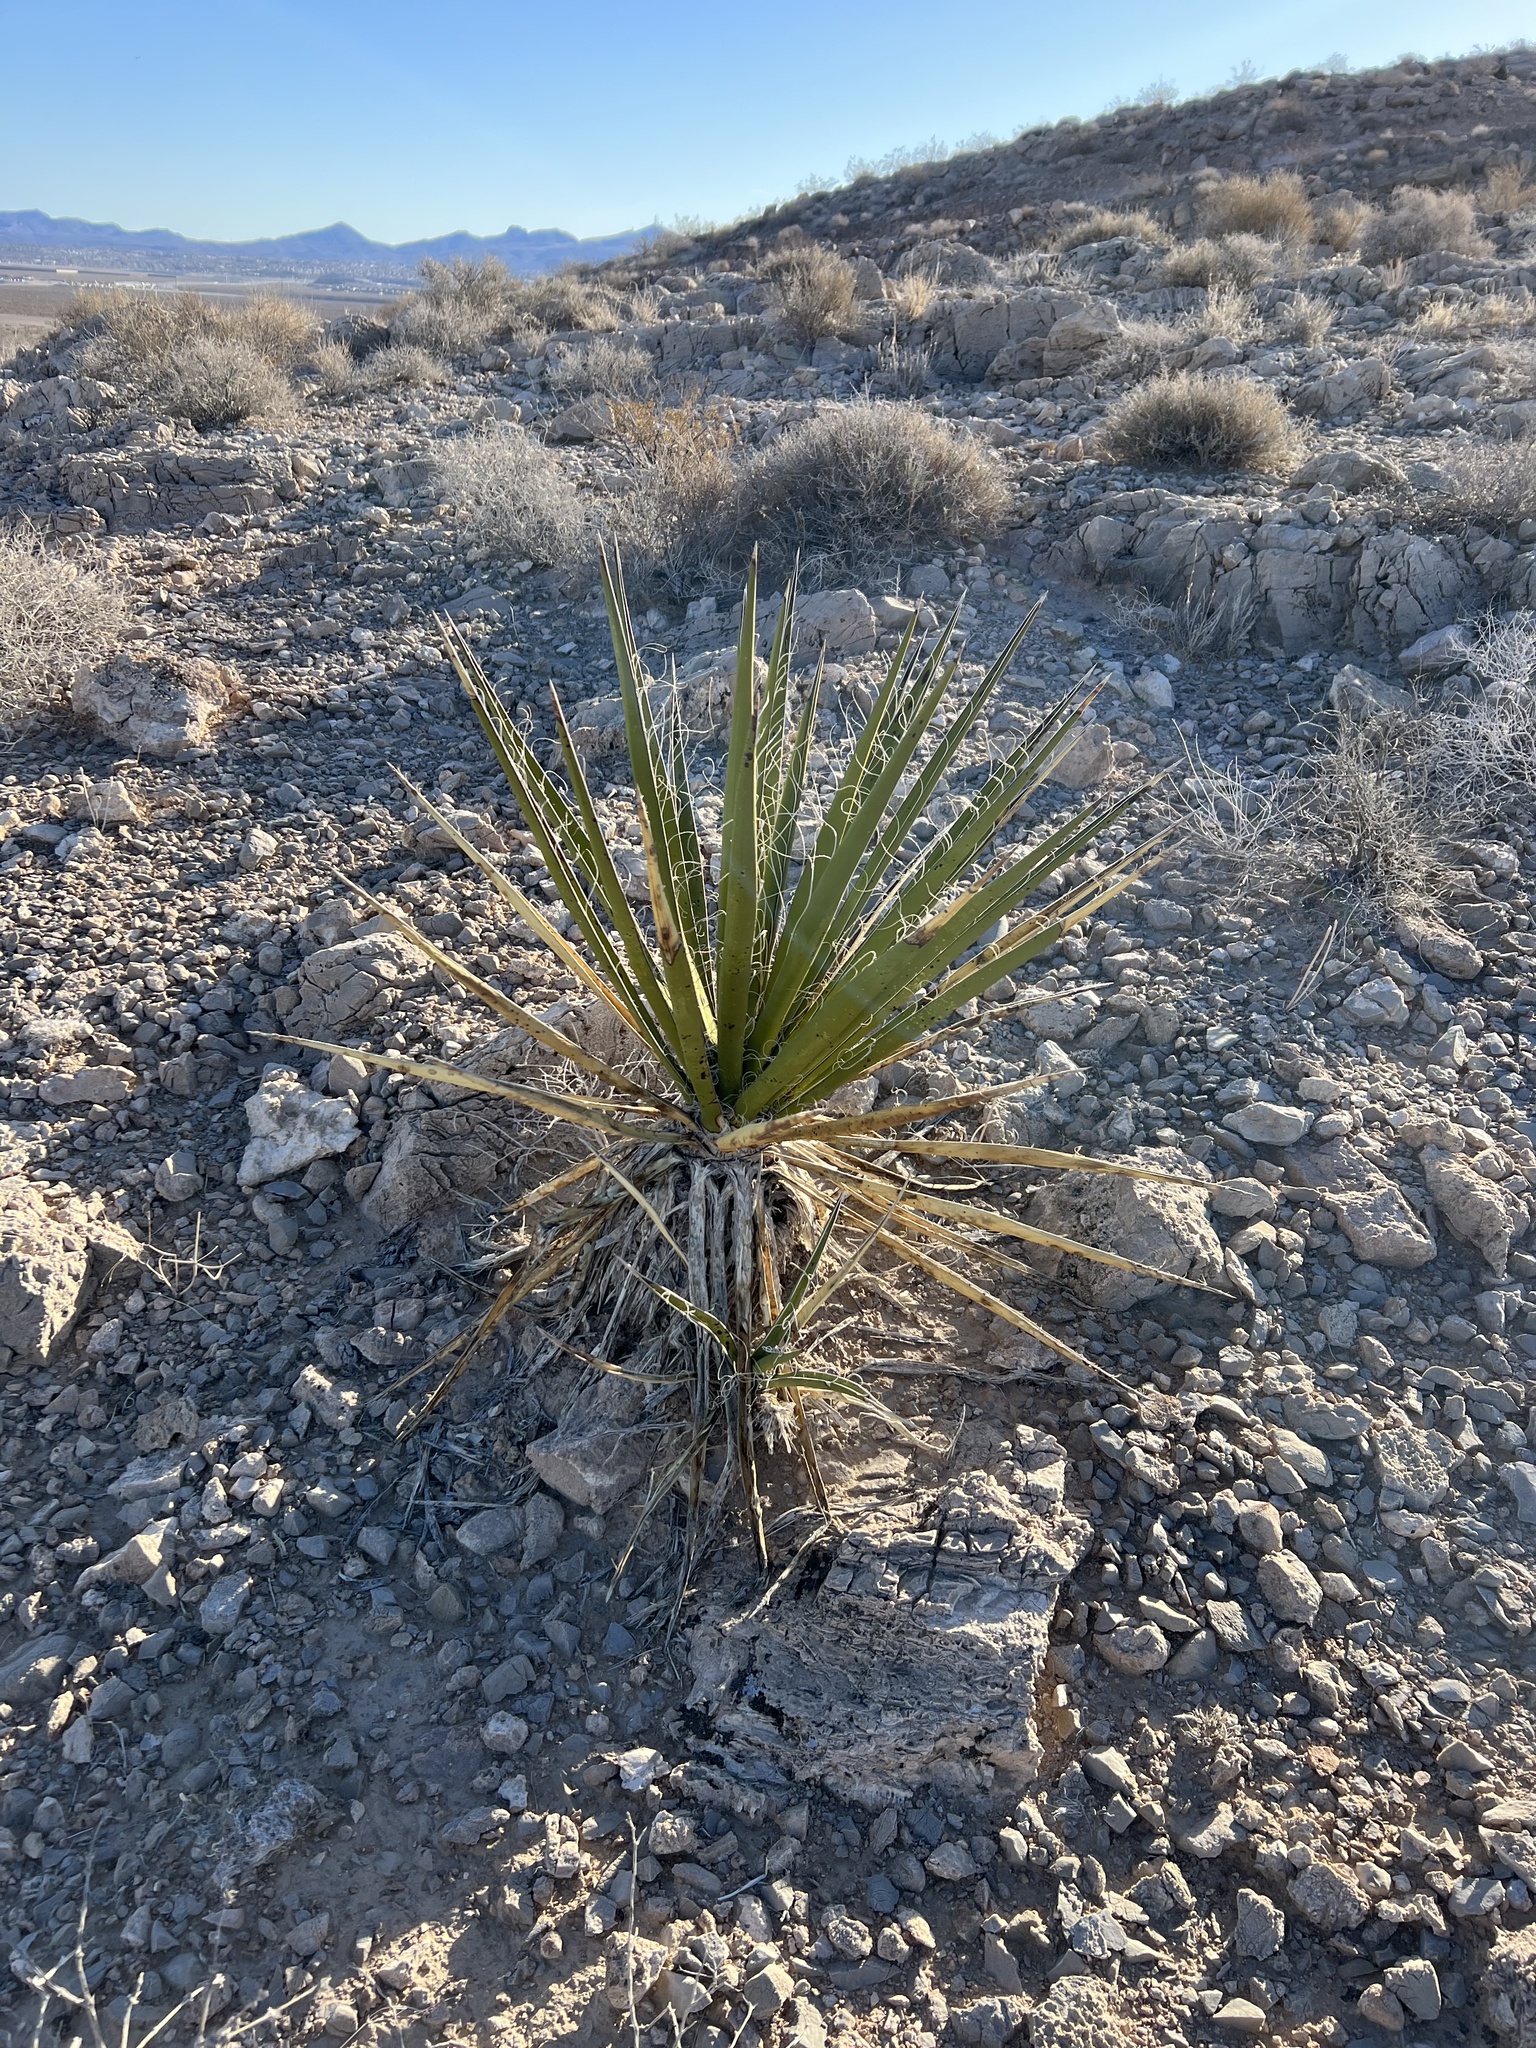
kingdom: Plantae
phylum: Tracheophyta
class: Liliopsida
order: Asparagales
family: Asparagaceae
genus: Yucca
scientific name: Yucca schidigera
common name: Mojave yucca
